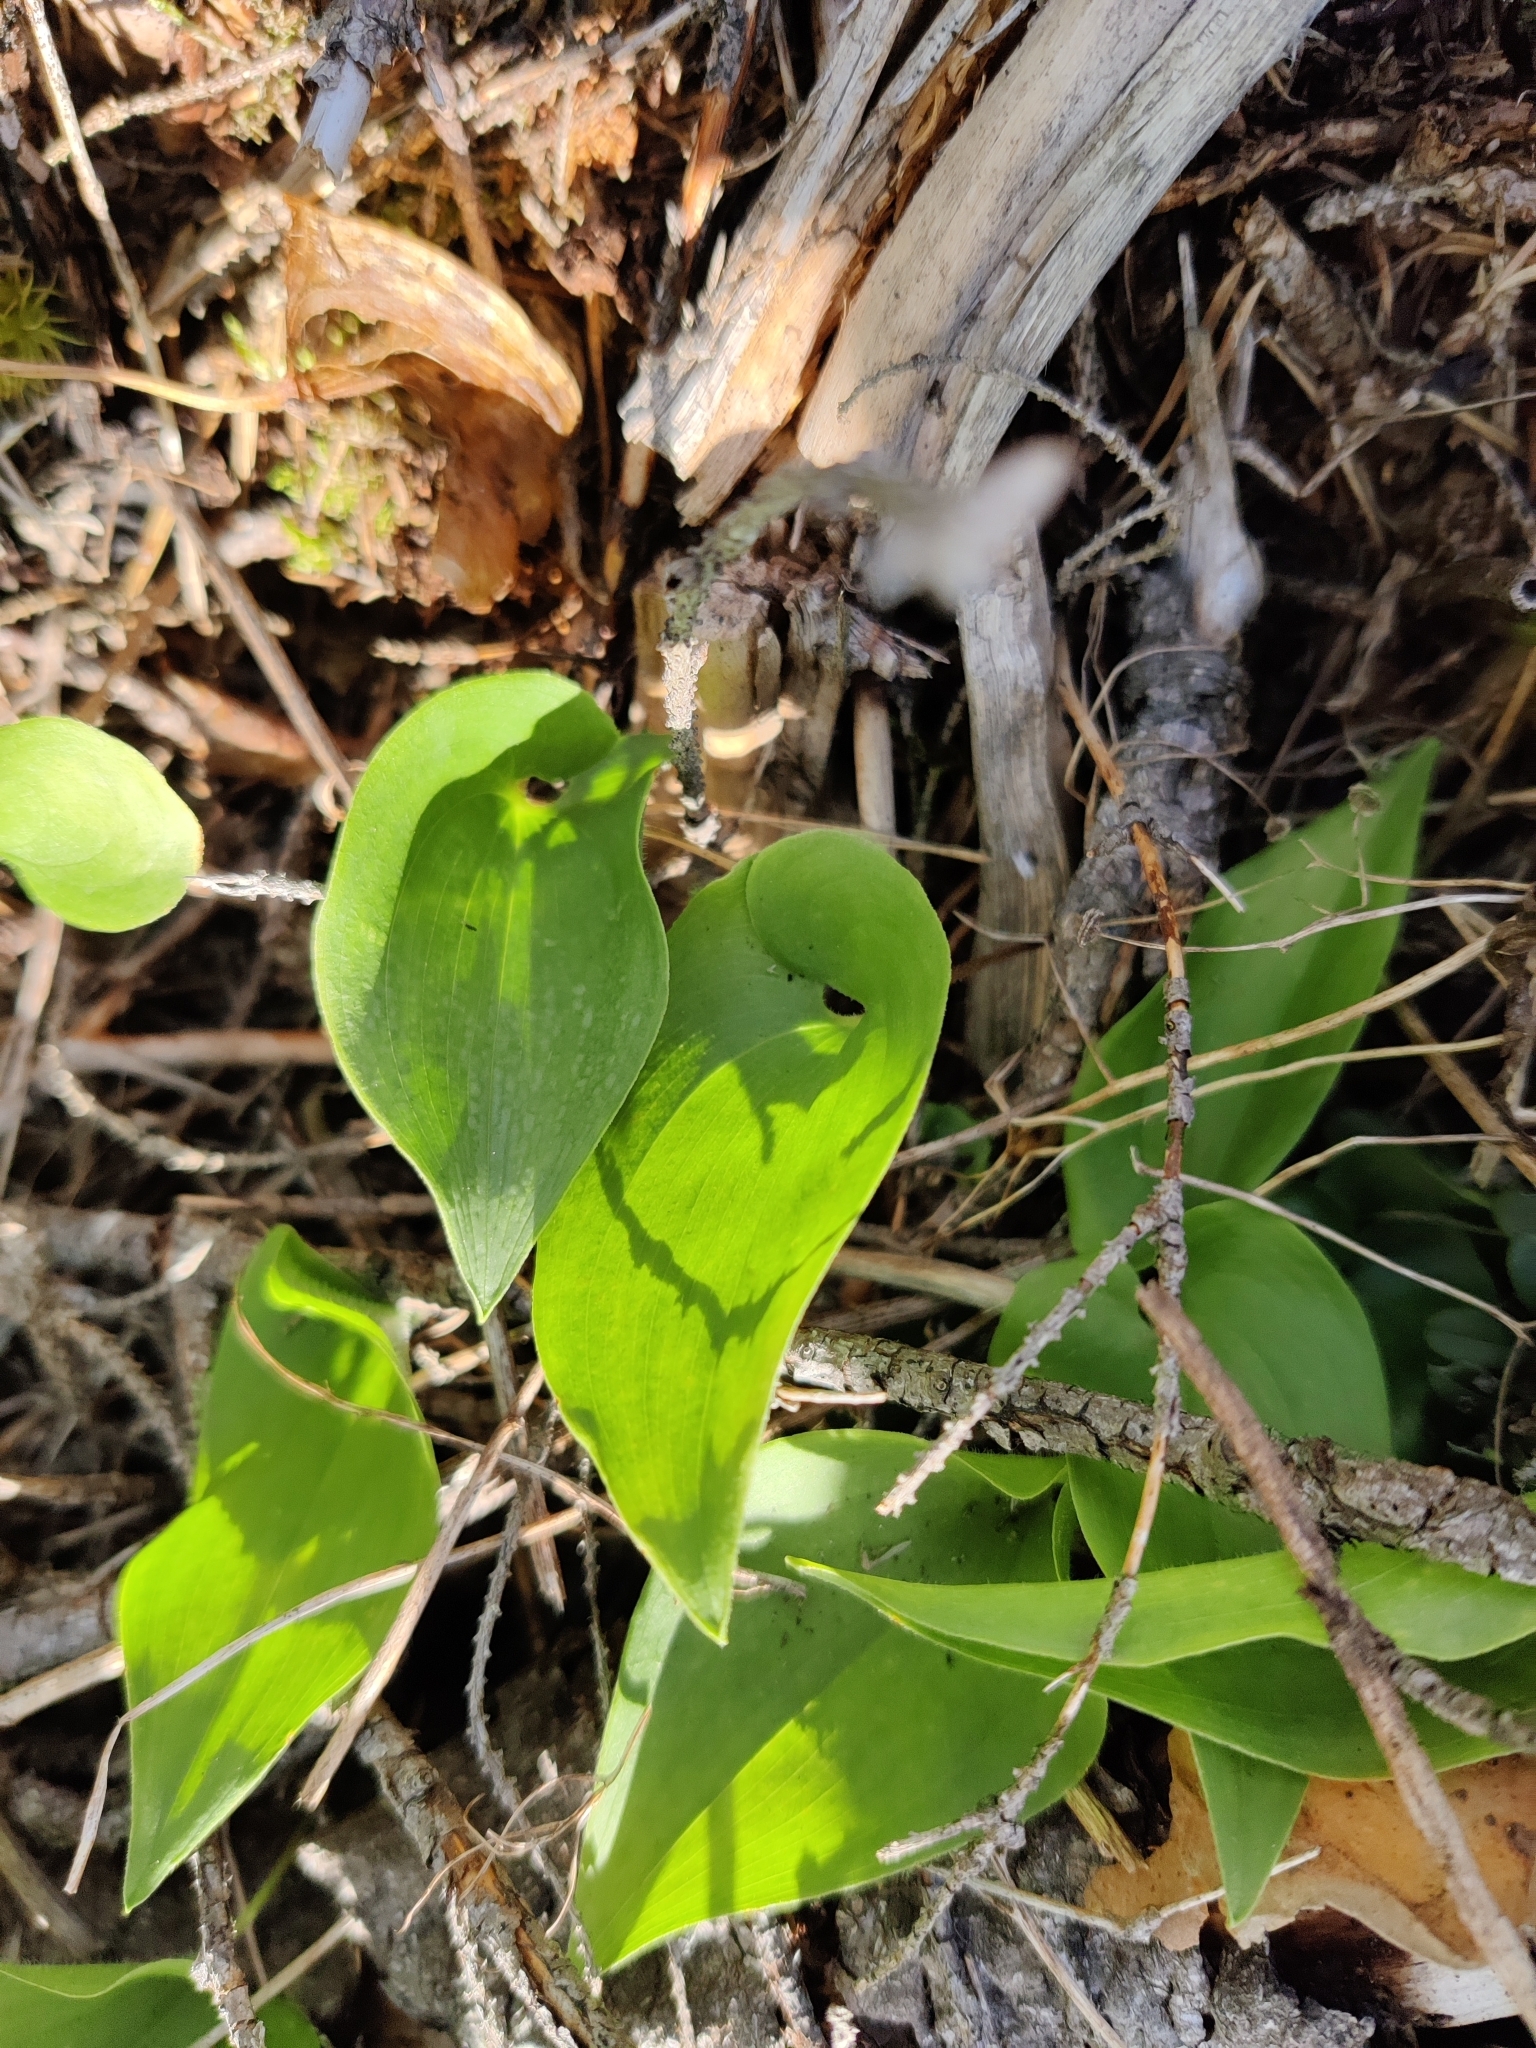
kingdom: Plantae
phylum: Tracheophyta
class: Liliopsida
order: Asparagales
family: Asparagaceae
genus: Maianthemum
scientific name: Maianthemum bifolium
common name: May lily
